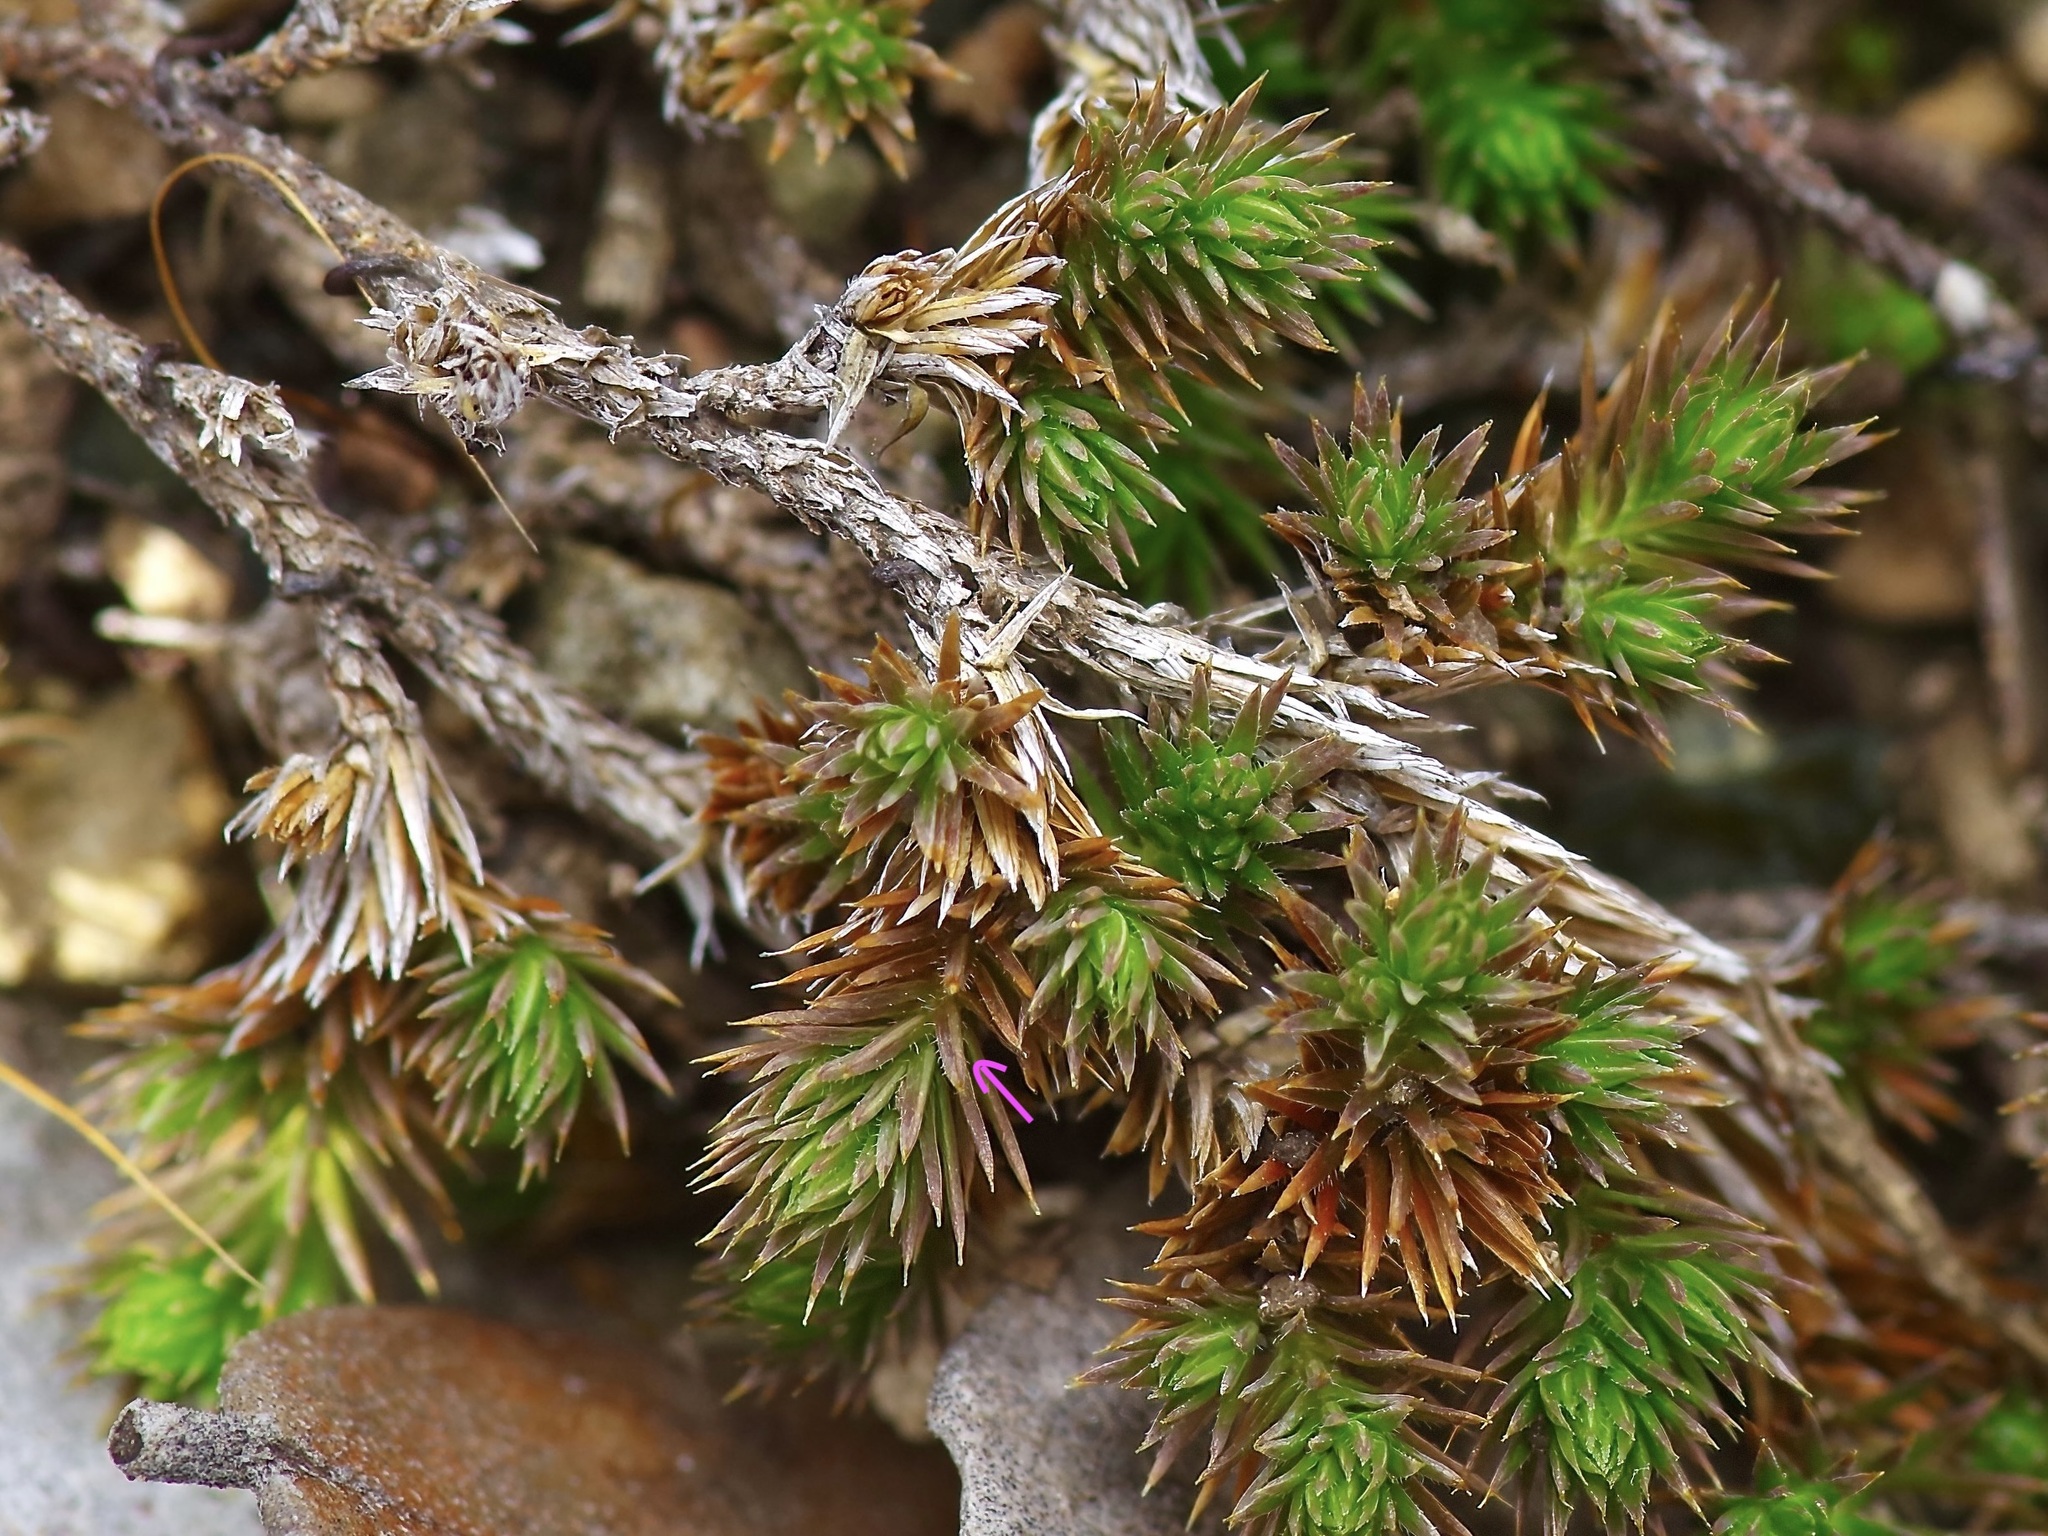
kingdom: Plantae
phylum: Tracheophyta
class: Lycopodiopsida
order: Selaginellales
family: Selaginellaceae
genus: Selaginella
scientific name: Selaginella peruviana
